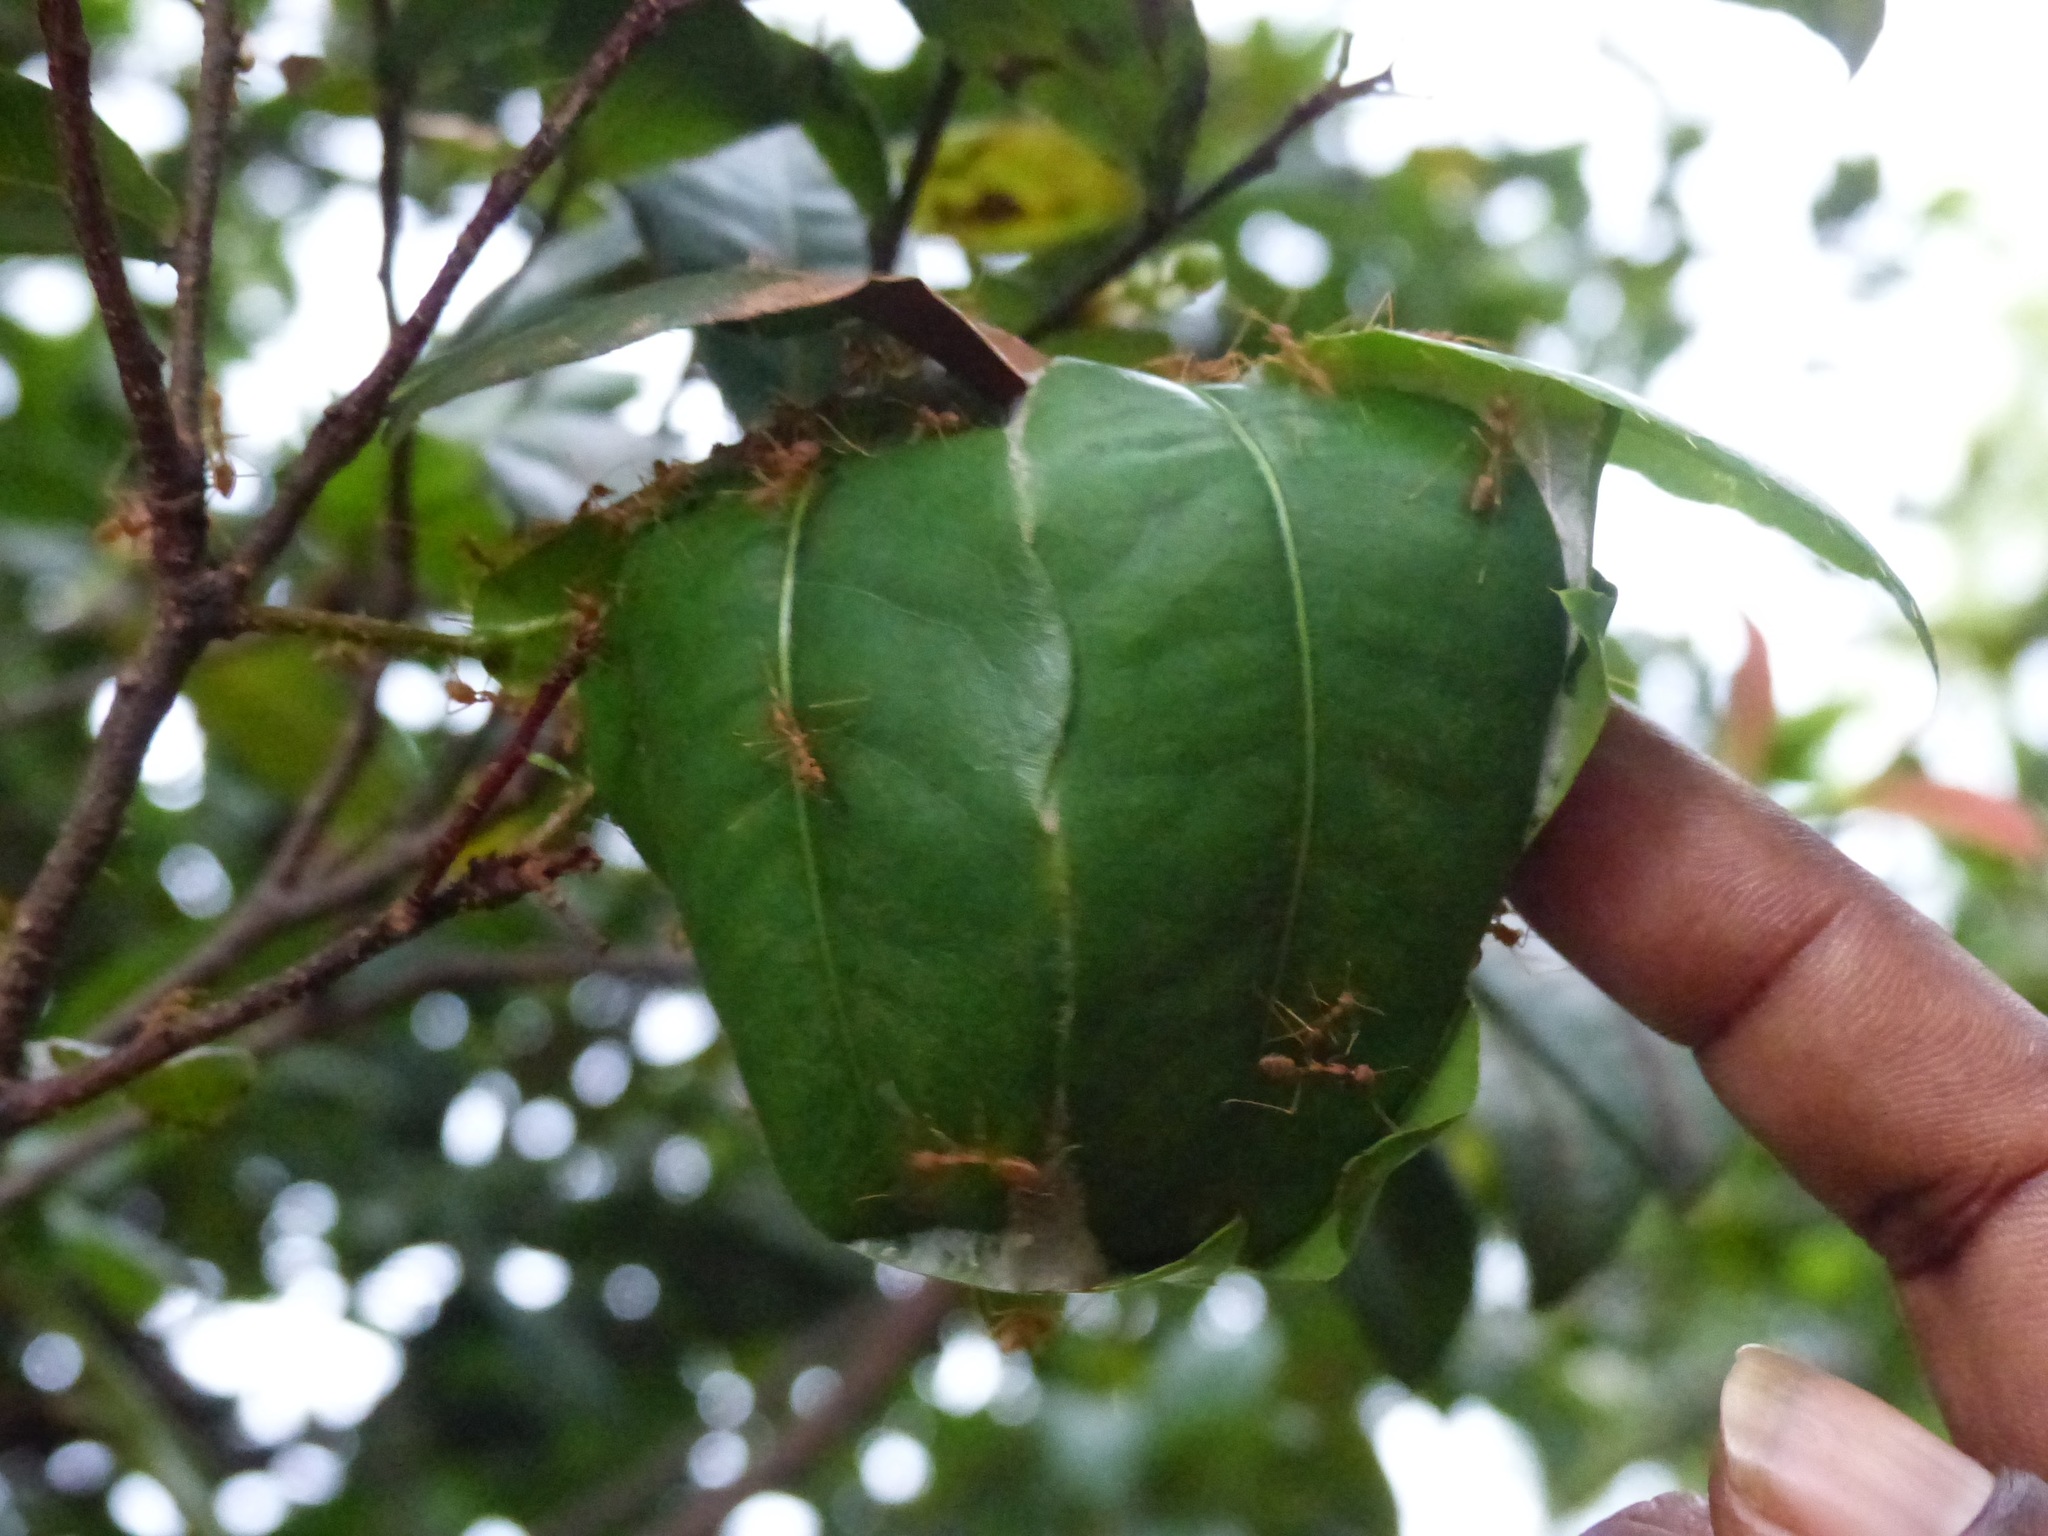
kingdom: Animalia
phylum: Arthropoda
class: Insecta
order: Hymenoptera
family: Formicidae
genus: Oecophylla
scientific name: Oecophylla smaragdina
